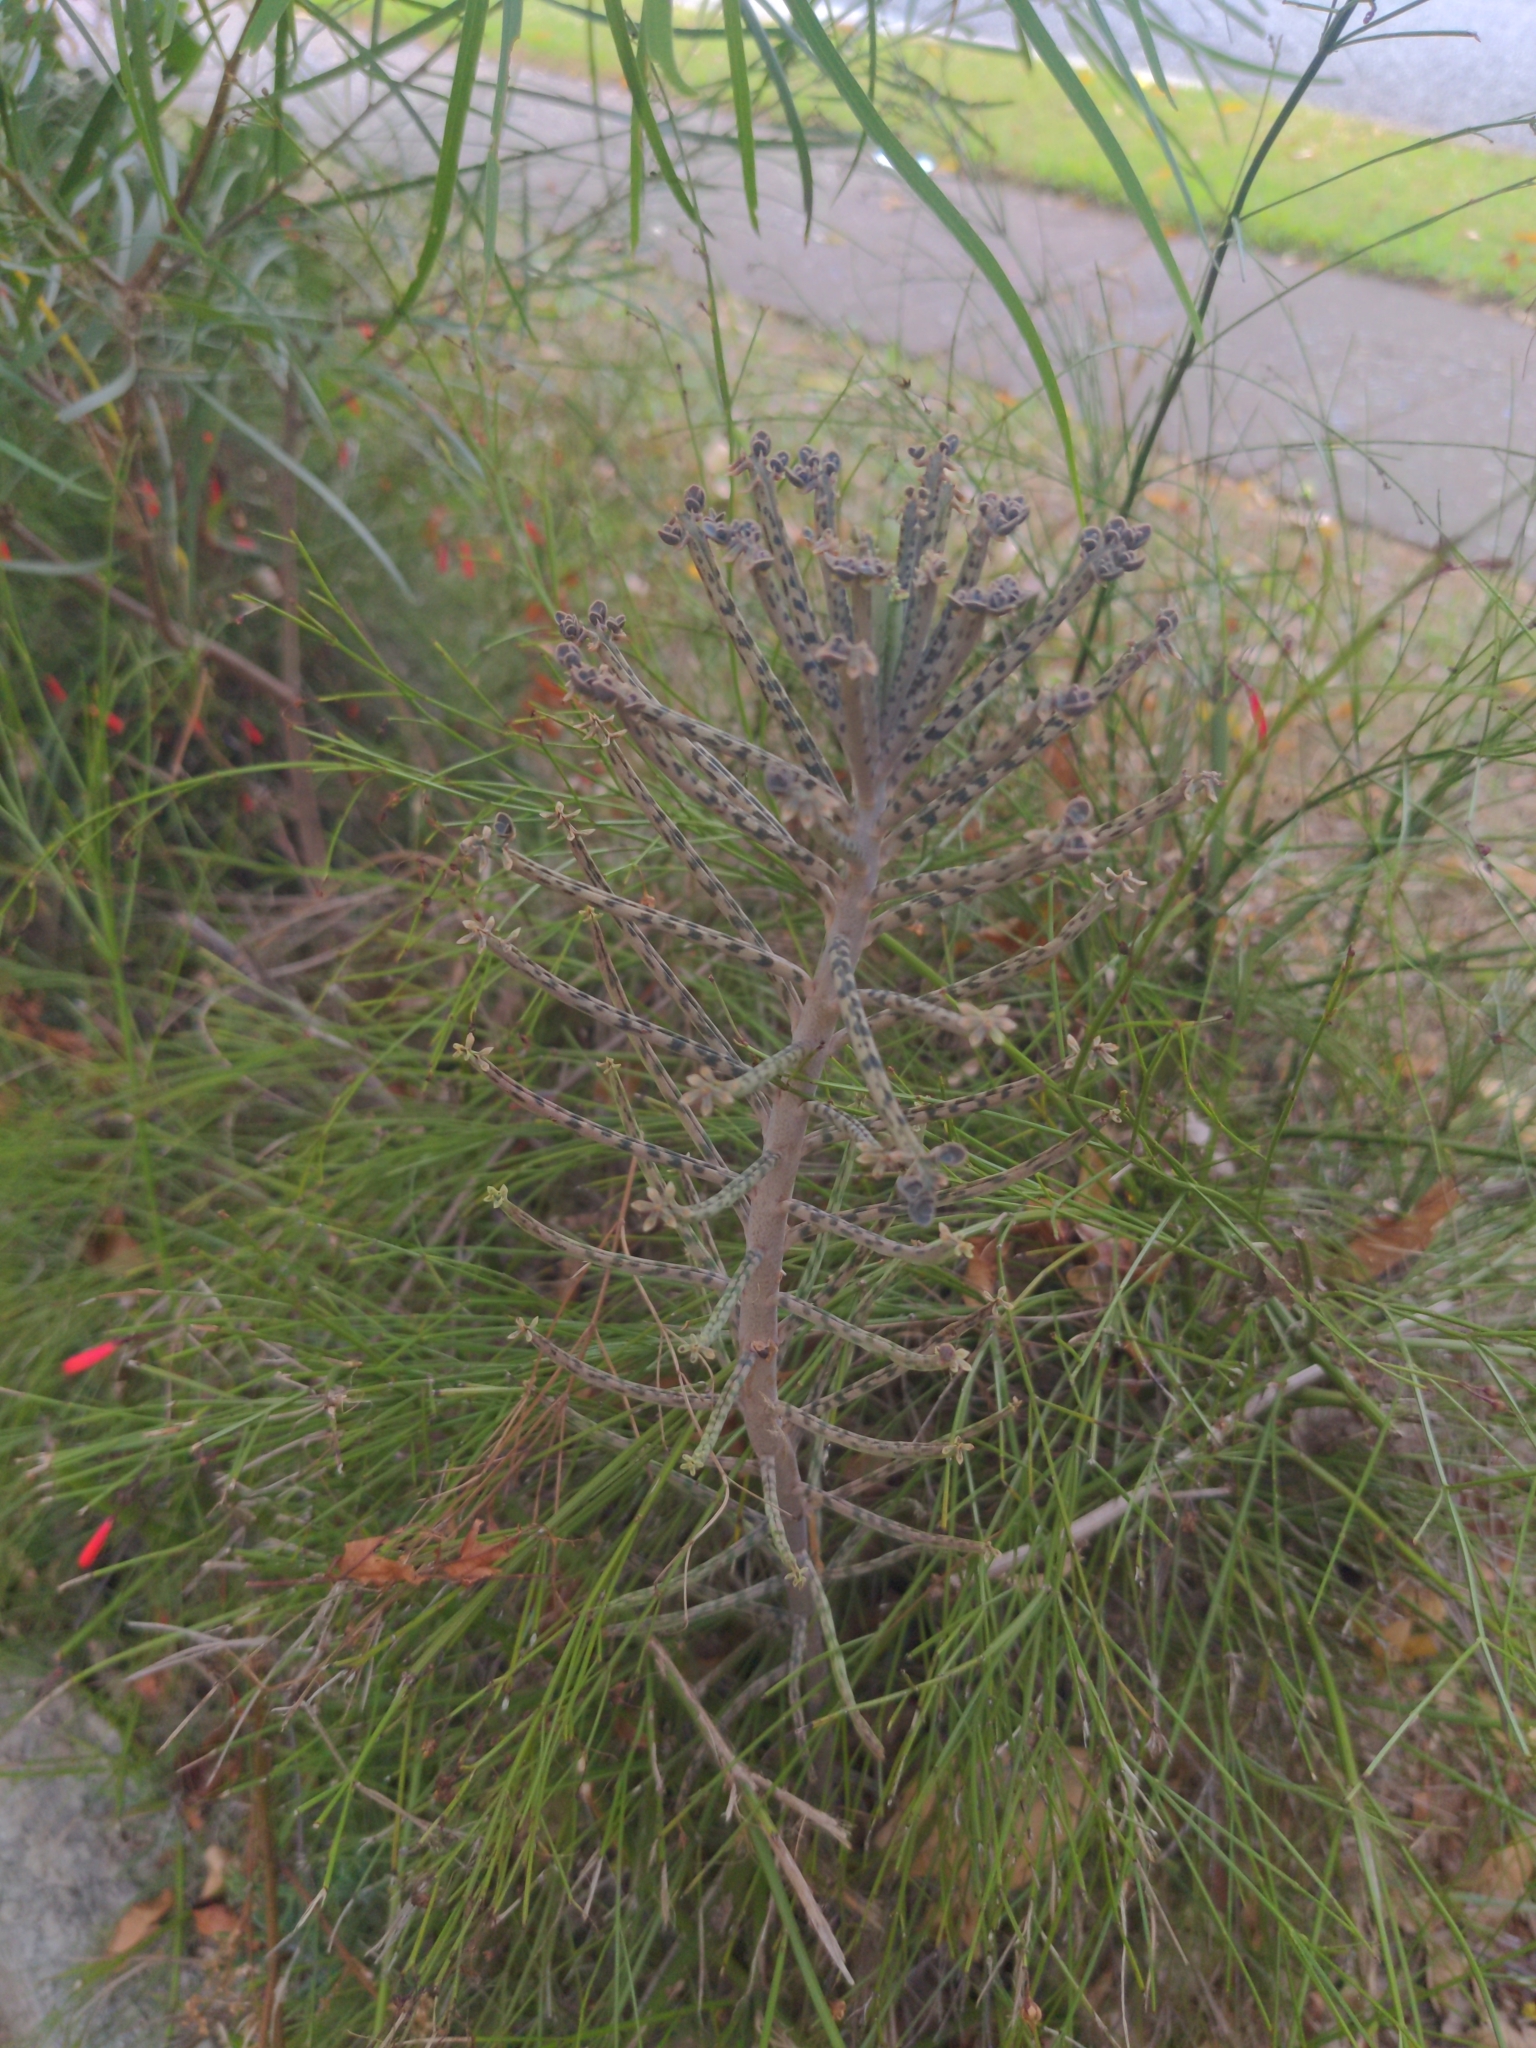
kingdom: Plantae
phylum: Tracheophyta
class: Magnoliopsida
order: Saxifragales
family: Crassulaceae
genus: Kalanchoe
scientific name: Kalanchoe delagoensis
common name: Chandelier plant
